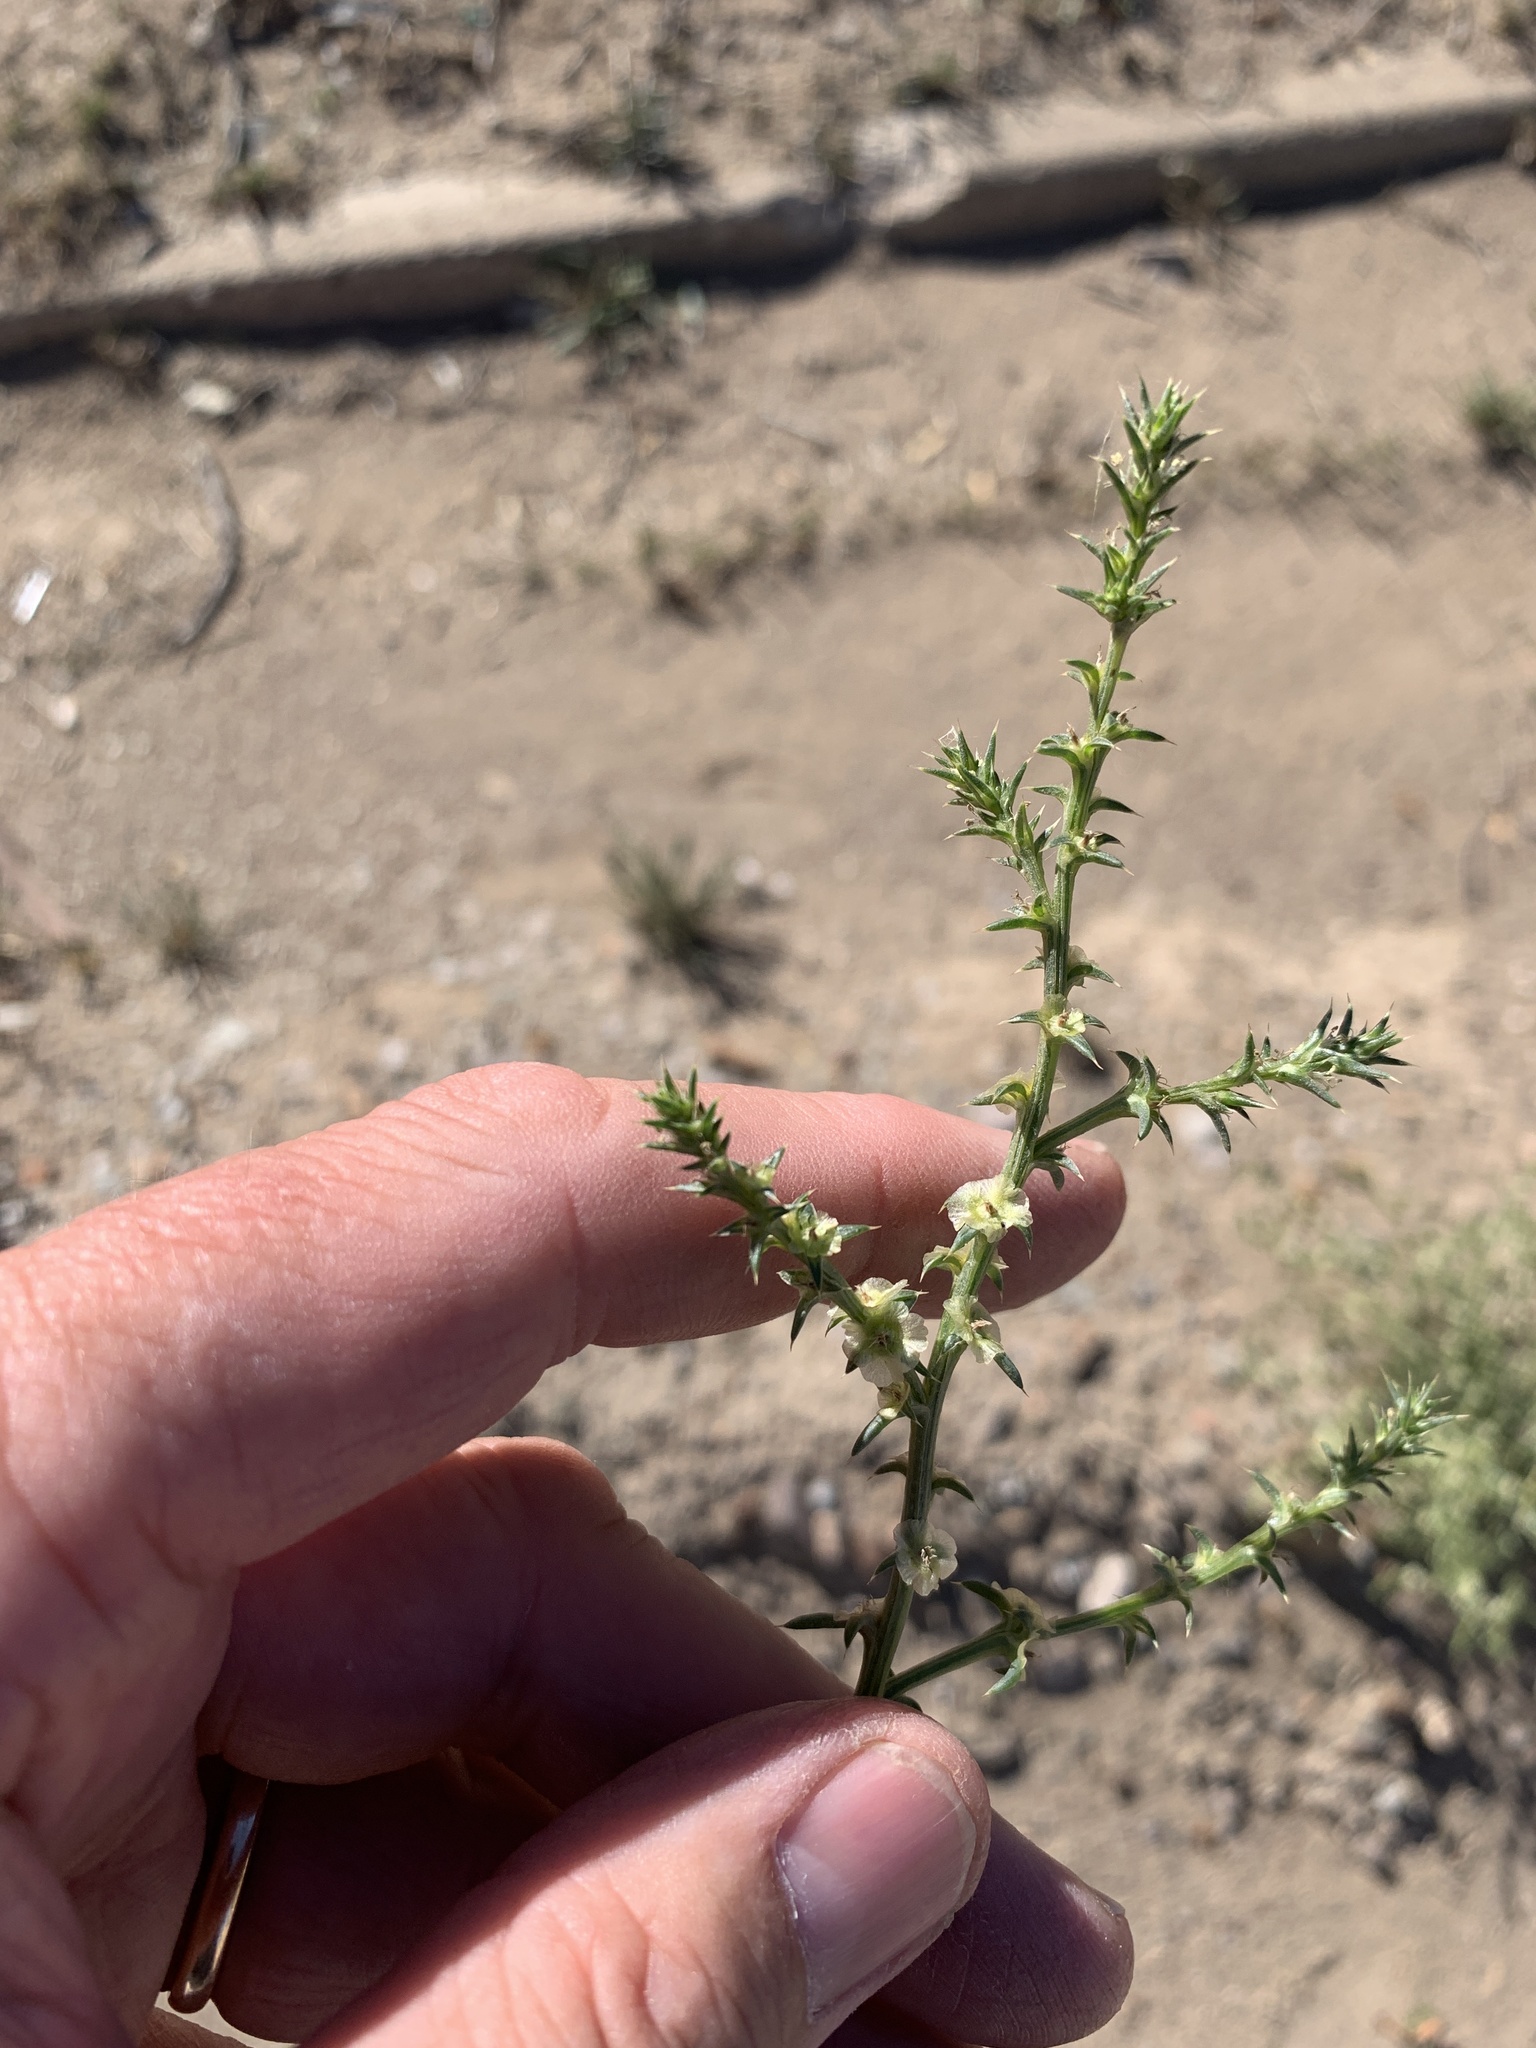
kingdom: Plantae
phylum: Tracheophyta
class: Magnoliopsida
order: Caryophyllales
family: Amaranthaceae
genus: Salsola
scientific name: Salsola kali
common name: Saltwort
